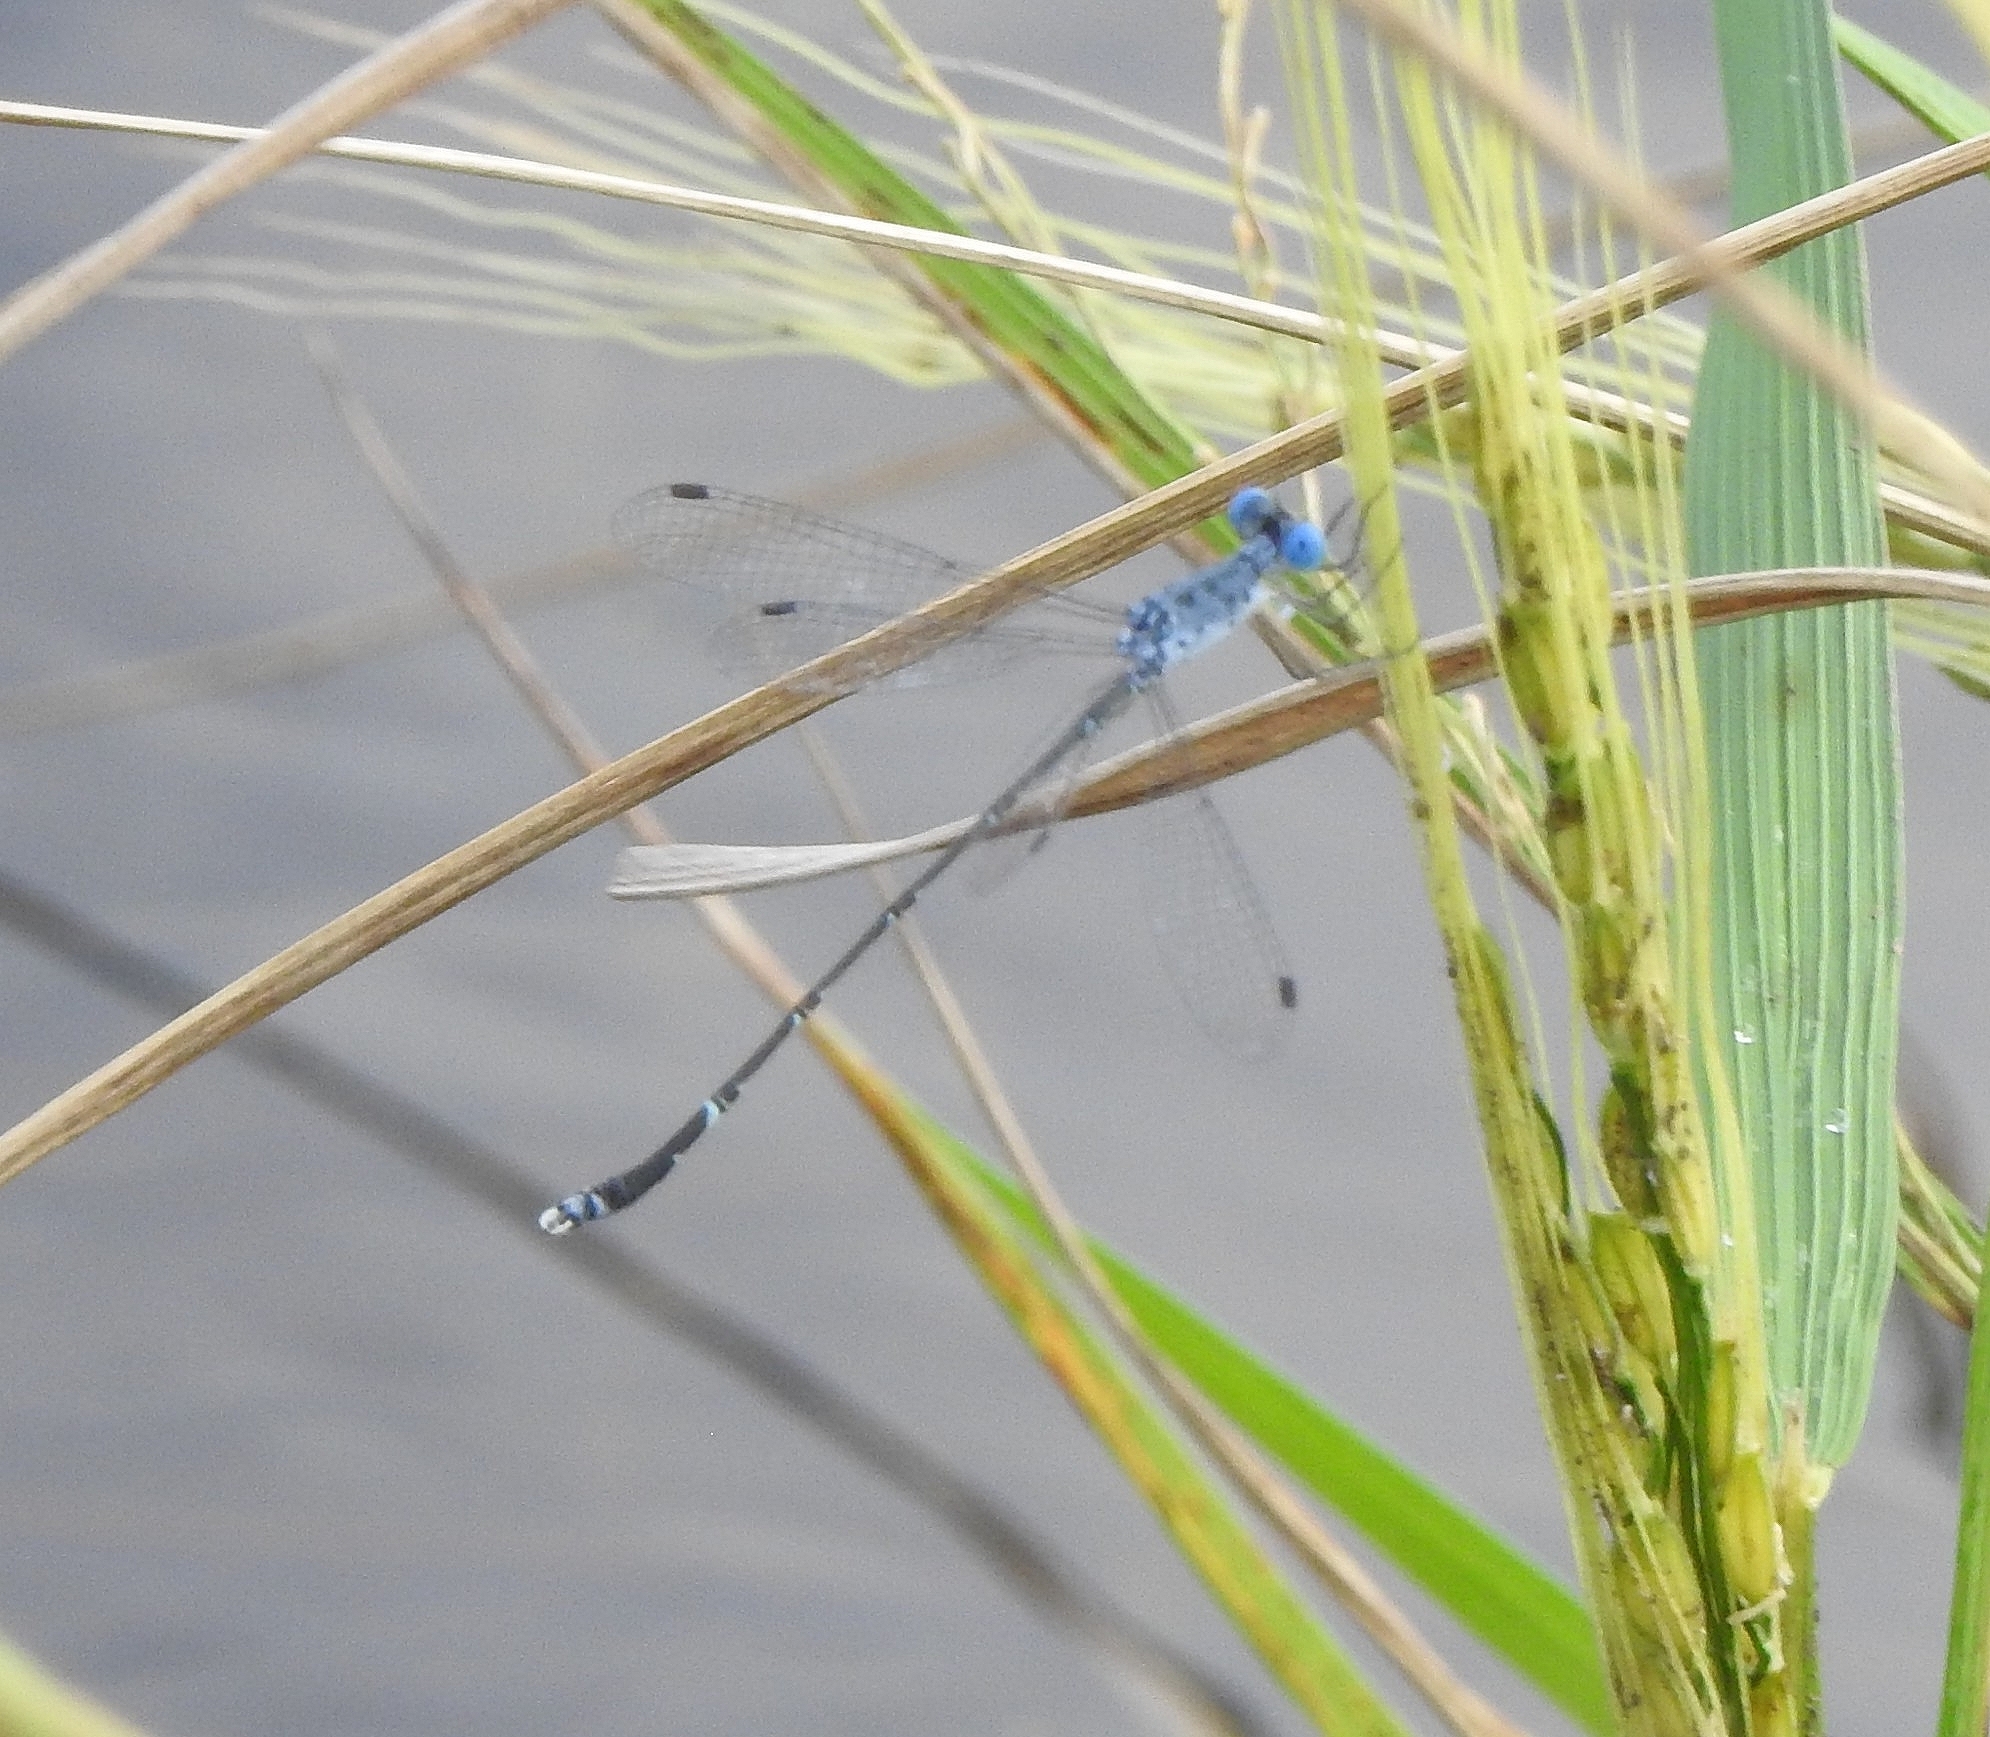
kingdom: Animalia
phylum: Arthropoda
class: Insecta
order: Odonata
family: Lestidae
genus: Lestes
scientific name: Lestes praemorsus
